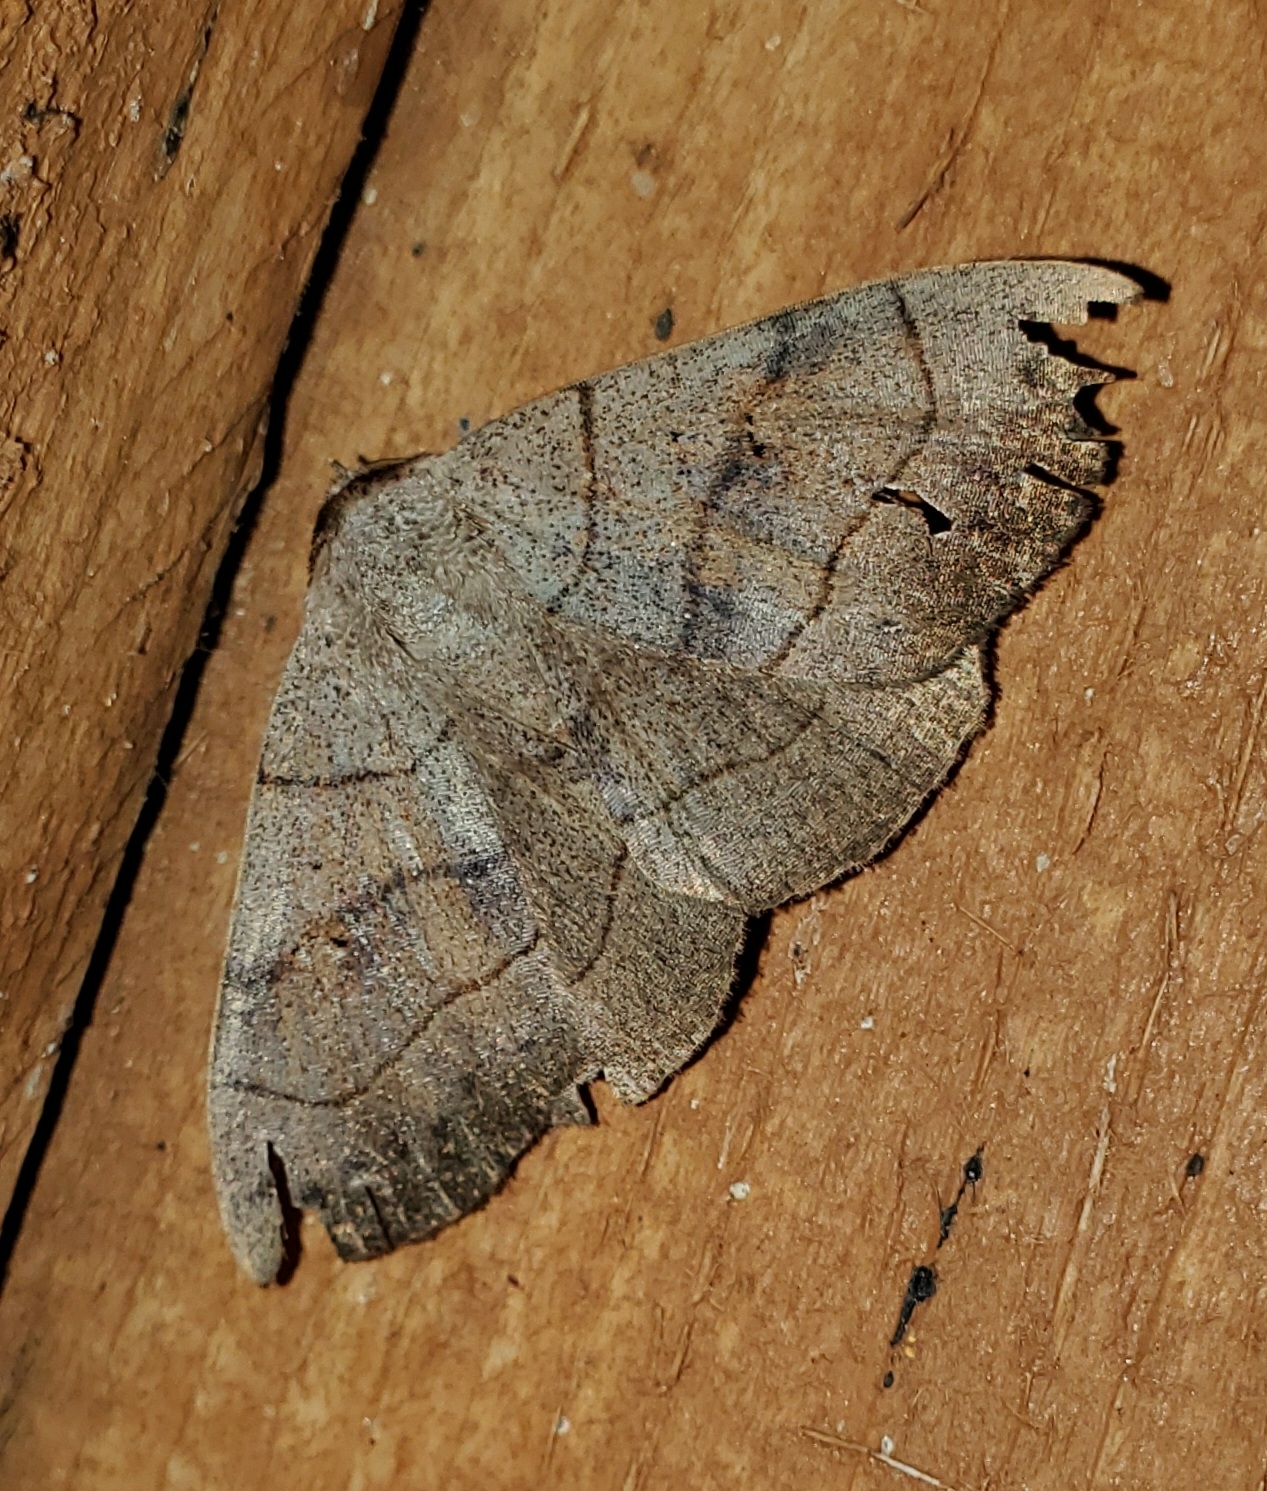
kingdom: Animalia
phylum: Arthropoda
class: Insecta
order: Lepidoptera
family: Erebidae
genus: Panopoda
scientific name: Panopoda carneicosta
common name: Brown panopoda moth
